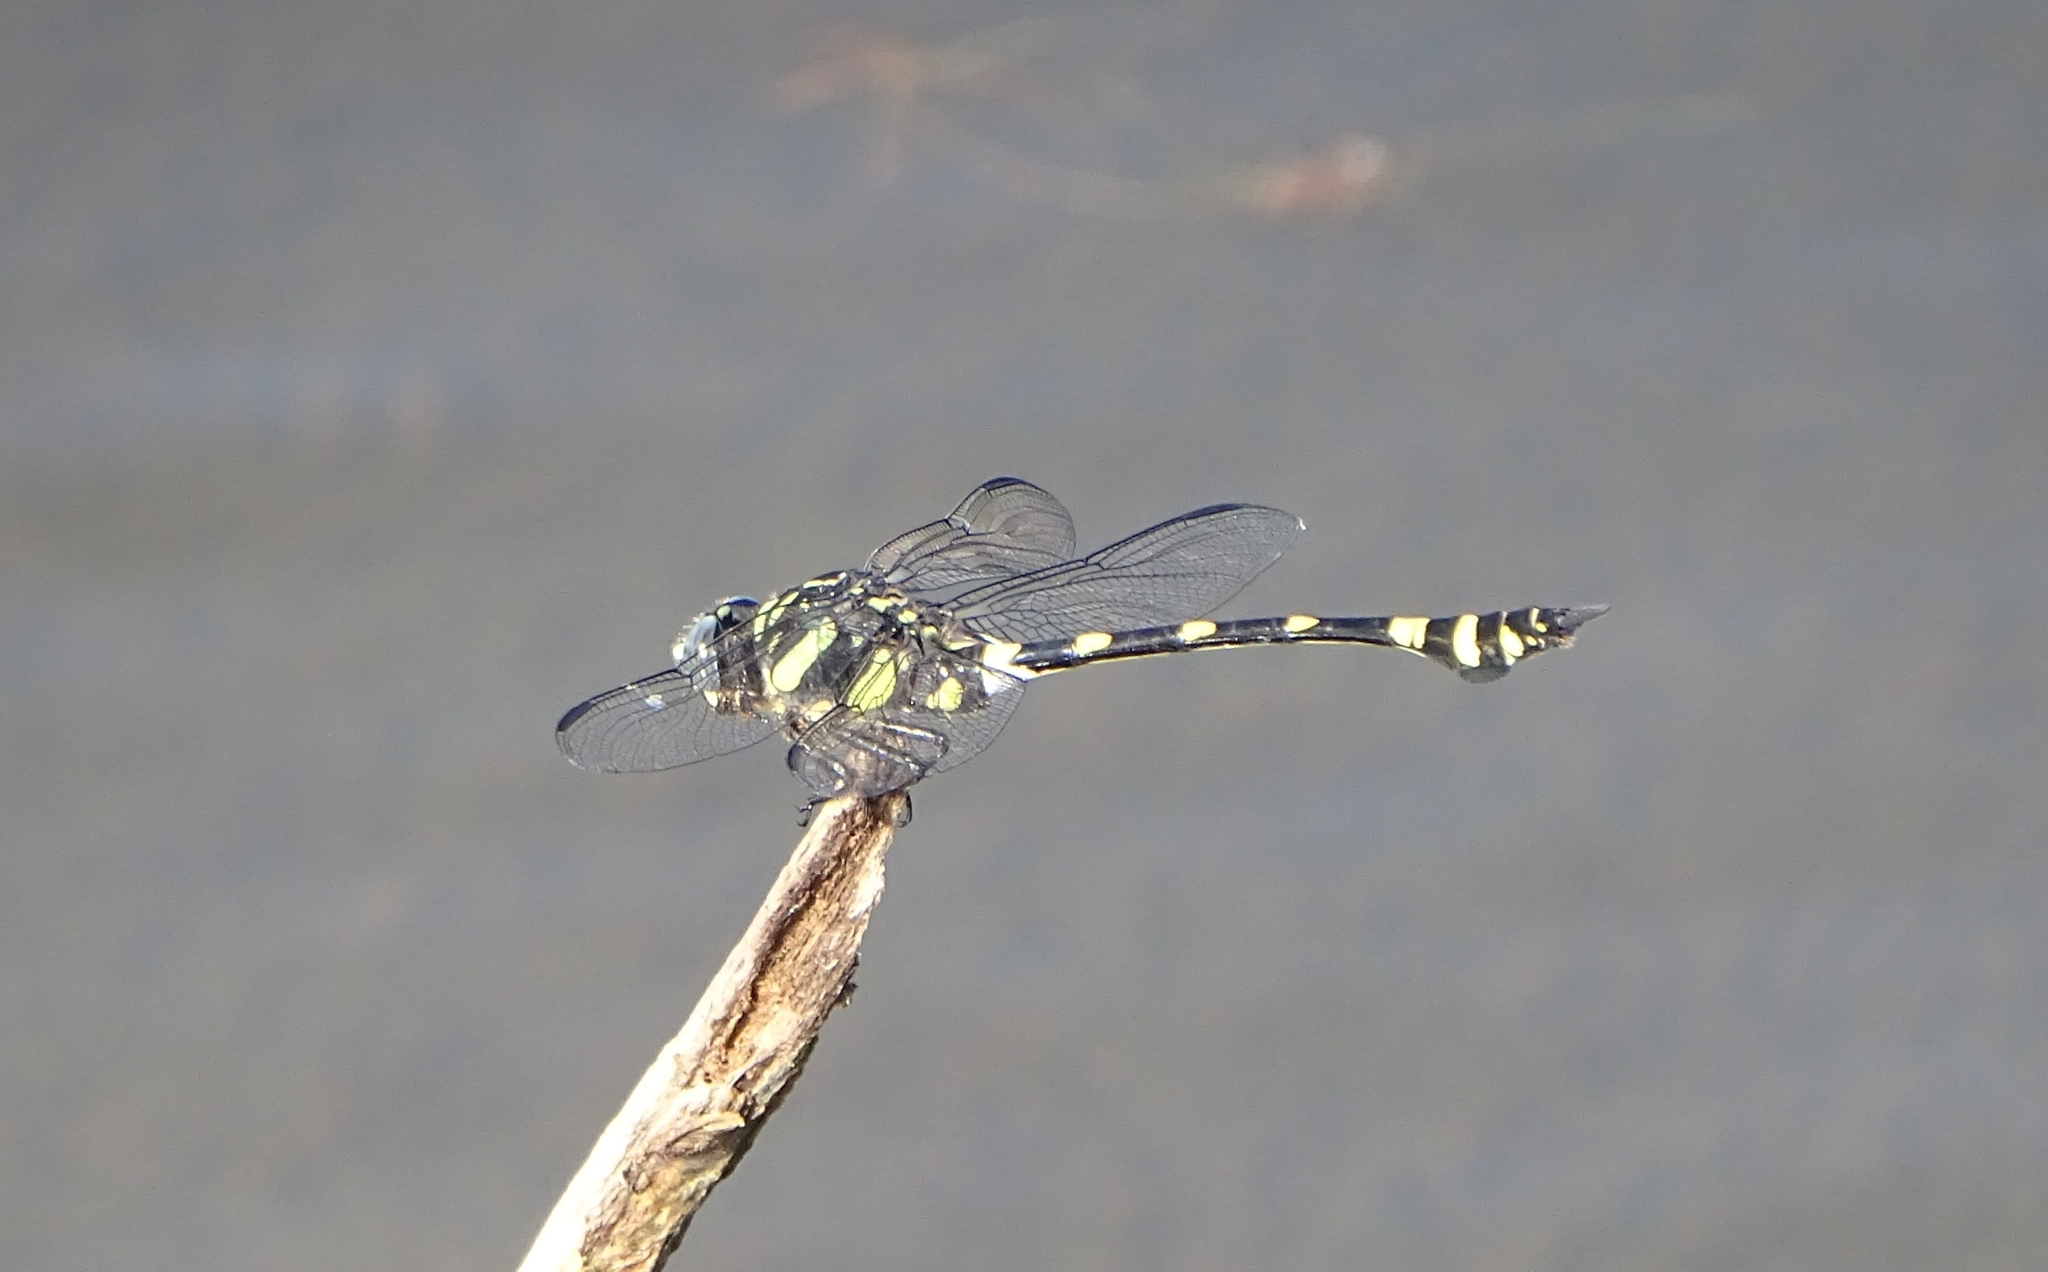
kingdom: Animalia
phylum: Arthropoda
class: Insecta
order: Odonata
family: Gomphidae
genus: Ictinogomphus
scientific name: Ictinogomphus rapax
